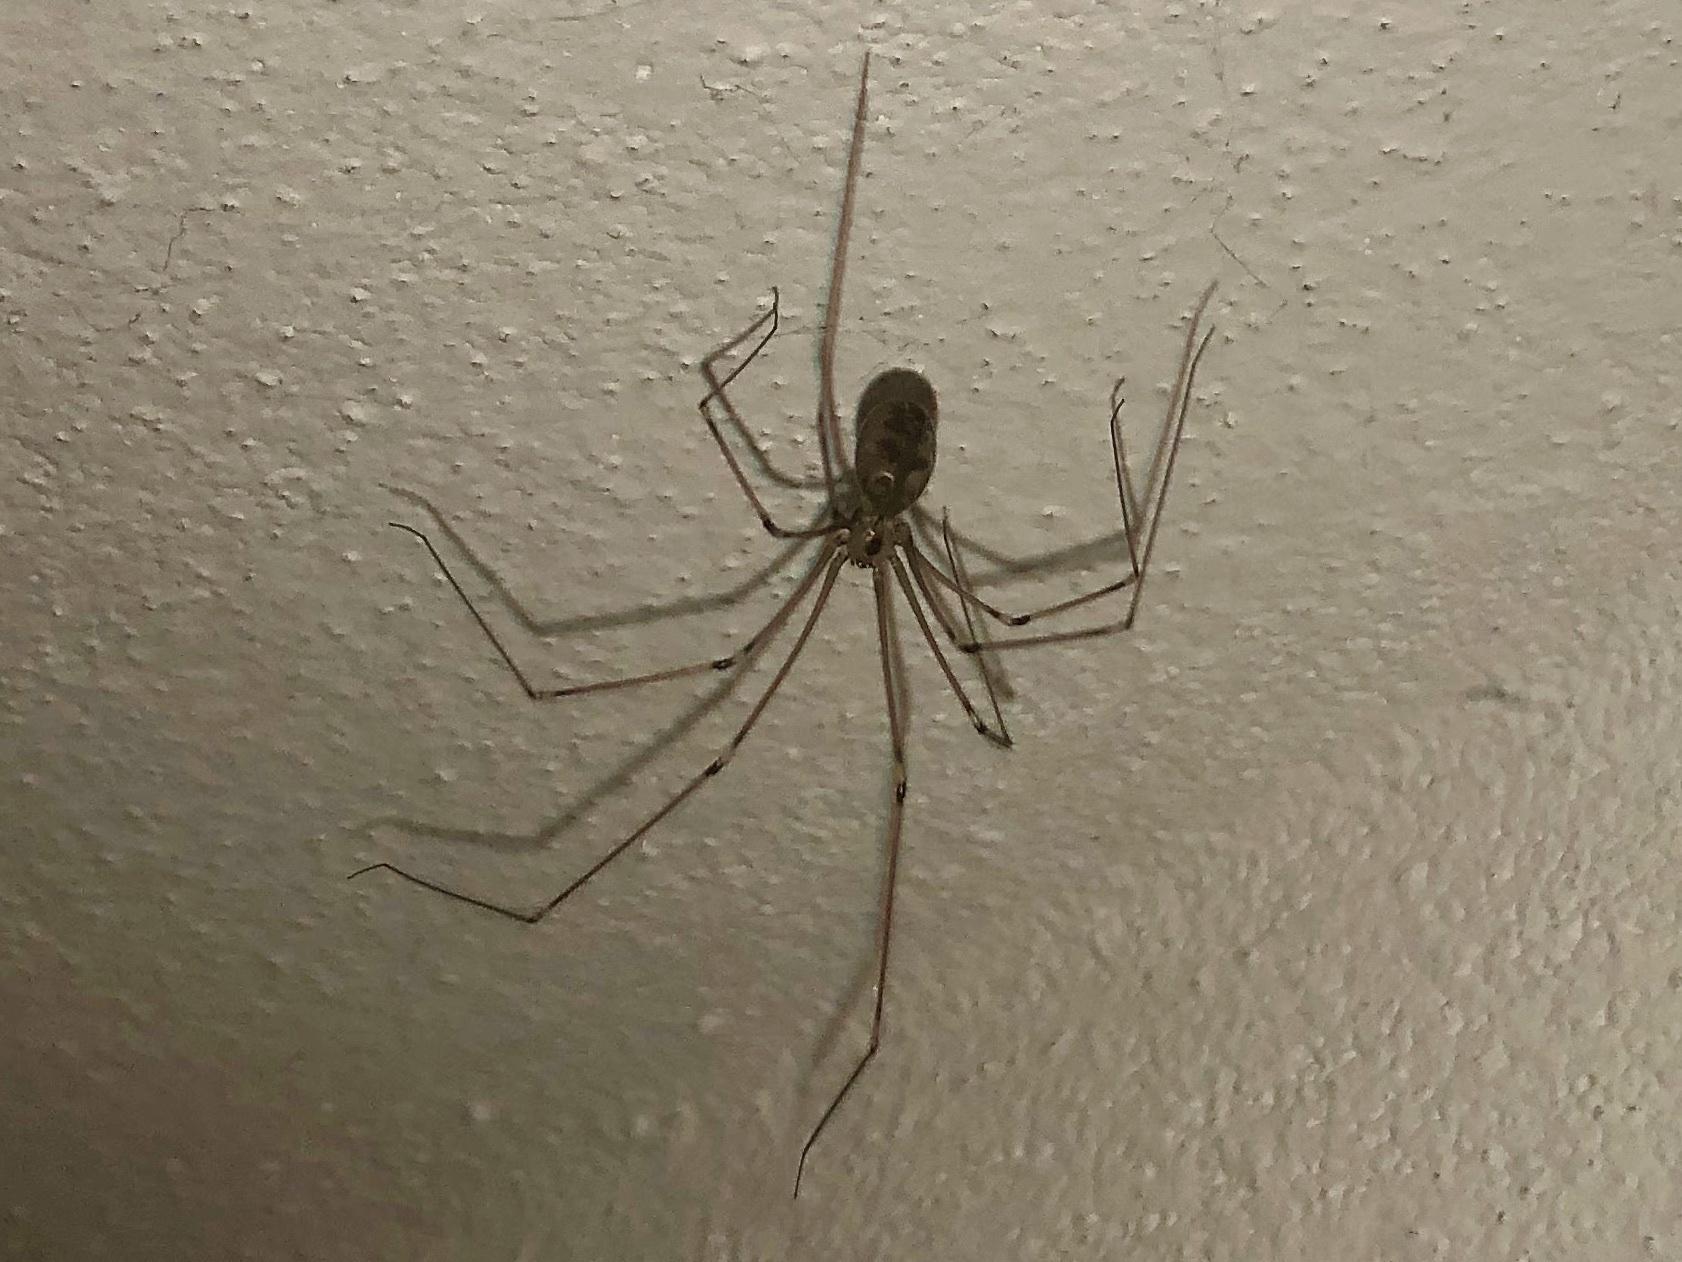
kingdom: Animalia
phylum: Arthropoda
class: Arachnida
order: Araneae
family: Pholcidae
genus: Pholcus
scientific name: Pholcus phalangioides
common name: Longbodied cellar spider
